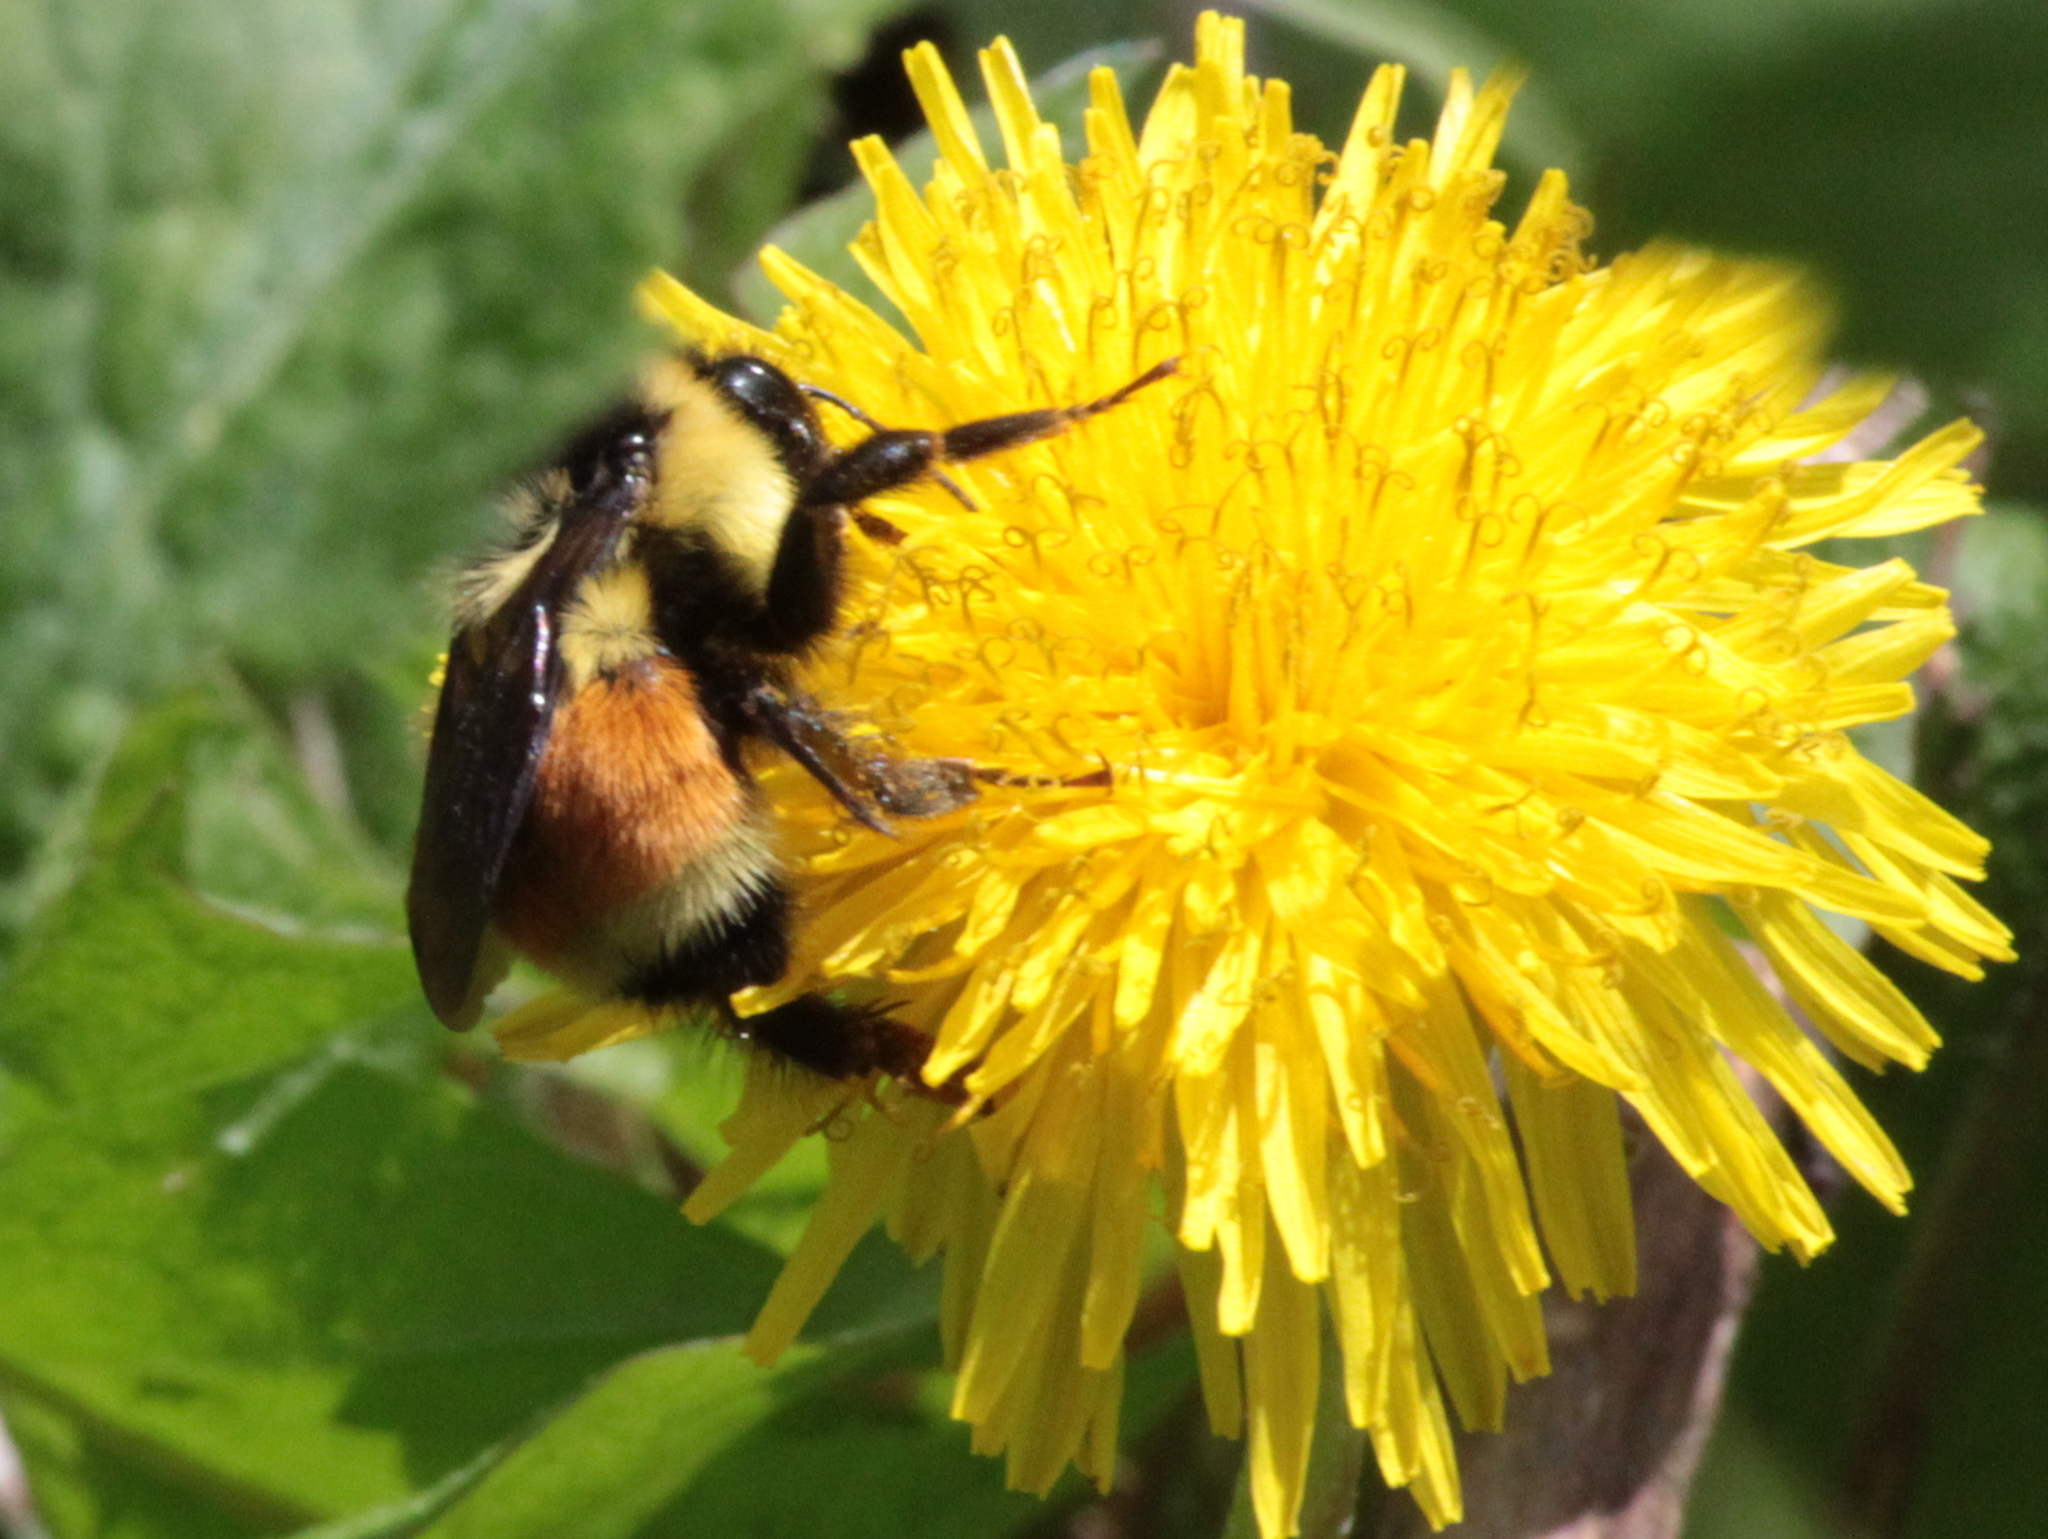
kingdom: Animalia
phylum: Arthropoda
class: Insecta
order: Hymenoptera
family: Apidae
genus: Bombus
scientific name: Bombus ternarius
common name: Tri-colored bumble bee
